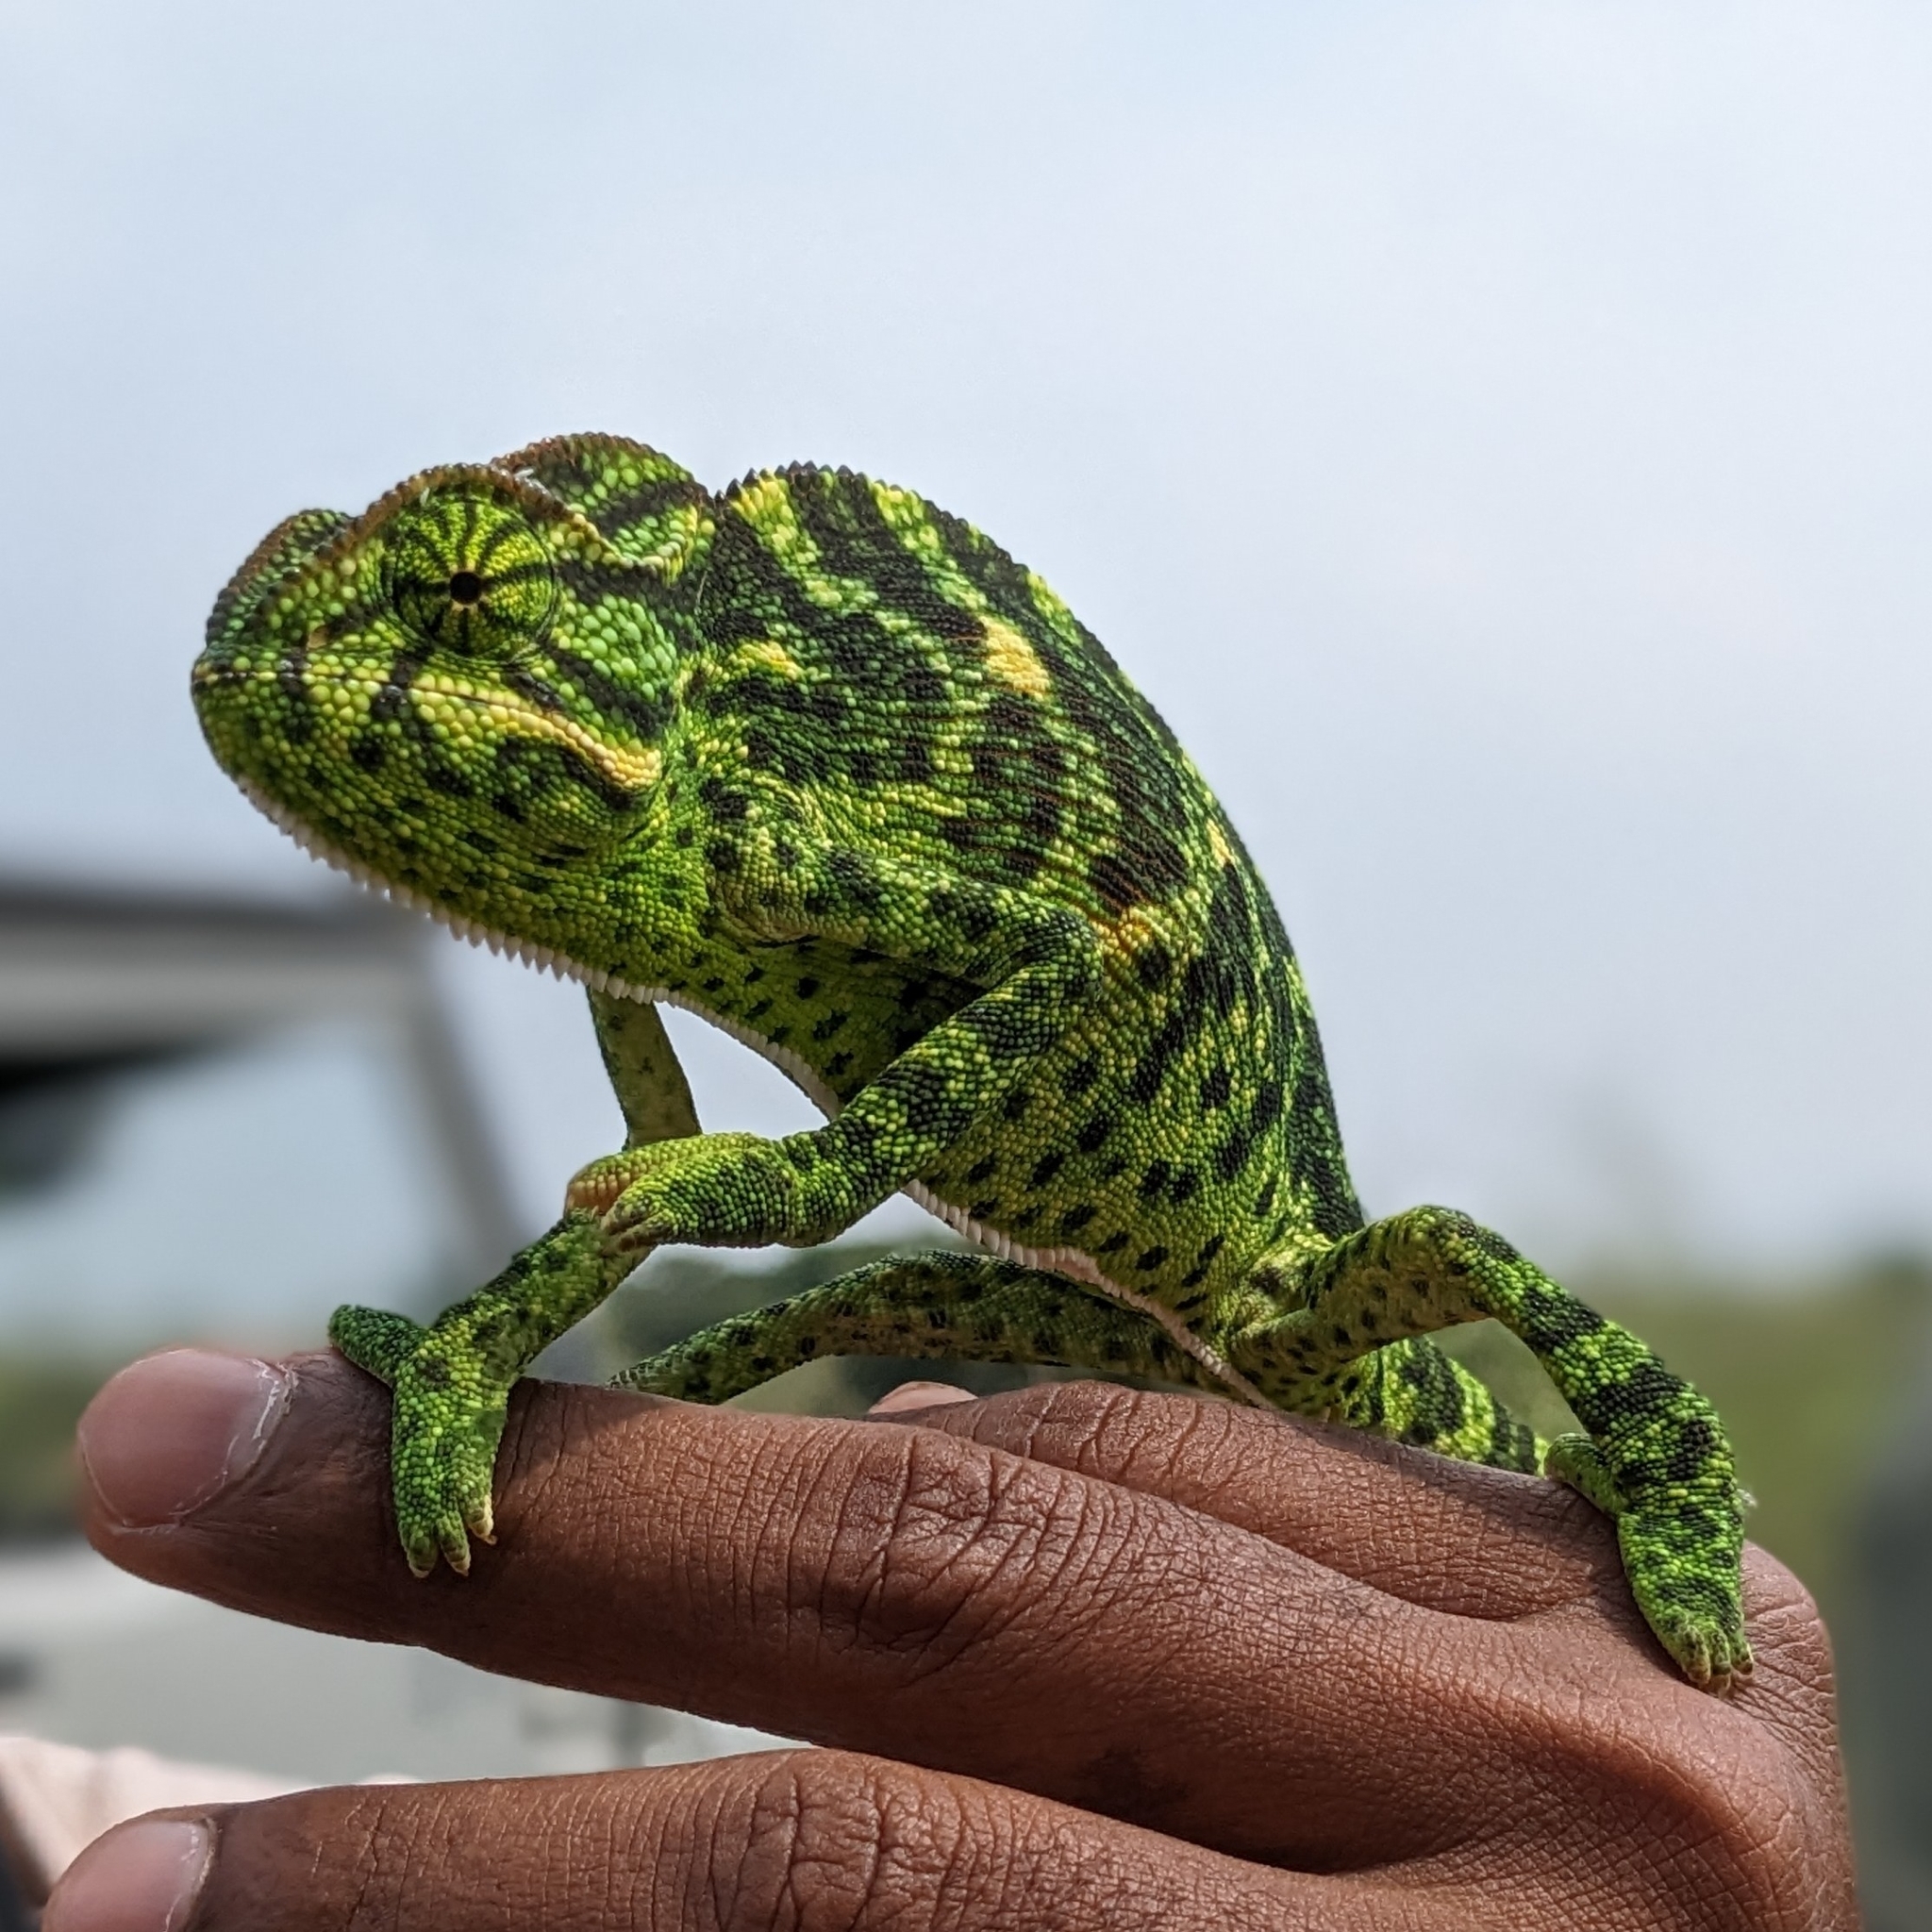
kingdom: Animalia
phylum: Chordata
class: Squamata
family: Chamaeleonidae
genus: Chamaeleo
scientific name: Chamaeleo zeylanicus
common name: Indian chameleon
